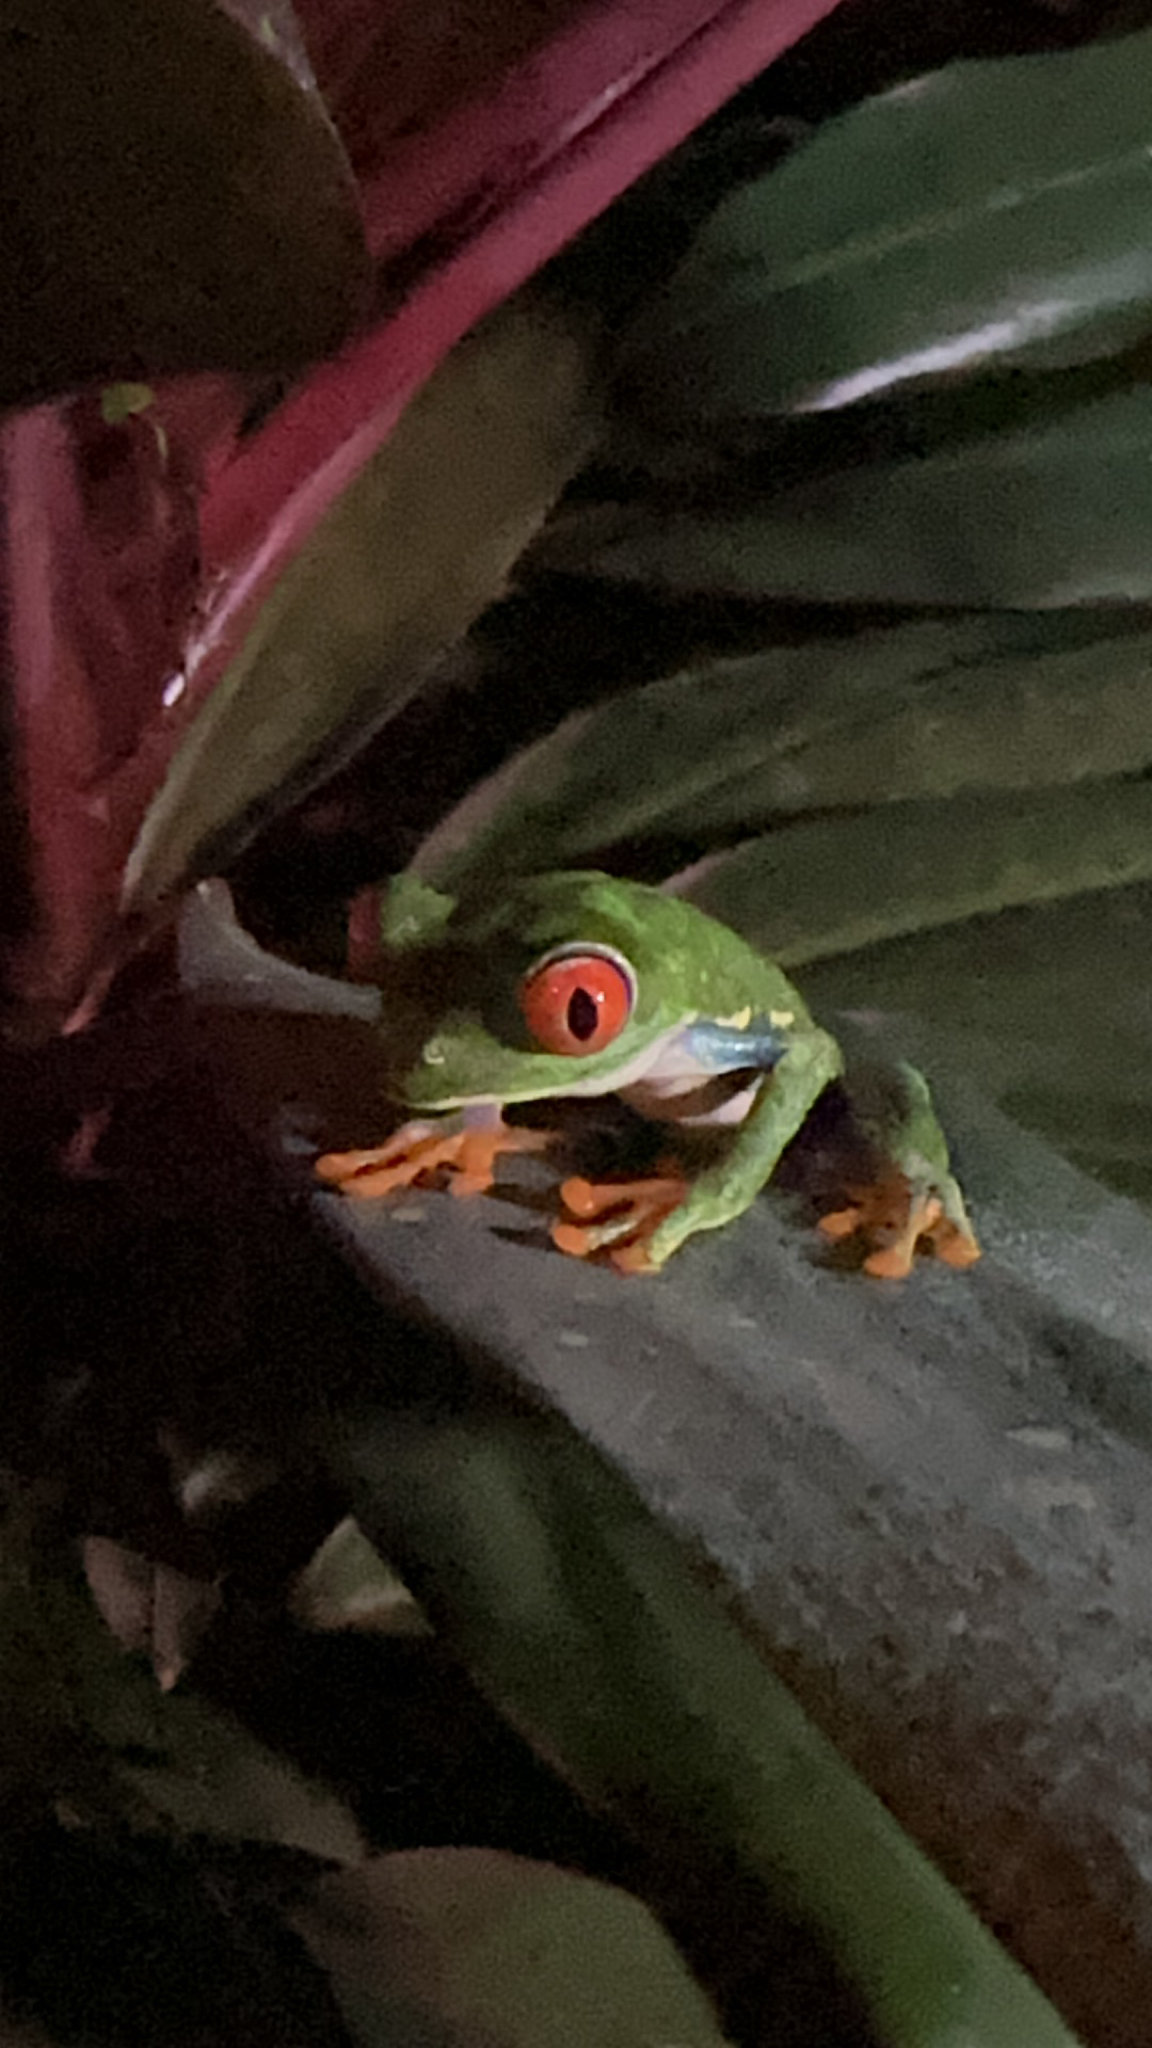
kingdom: Animalia
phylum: Chordata
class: Amphibia
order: Anura
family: Phyllomedusidae
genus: Agalychnis
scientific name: Agalychnis callidryas
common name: Red-eyed treefrog
